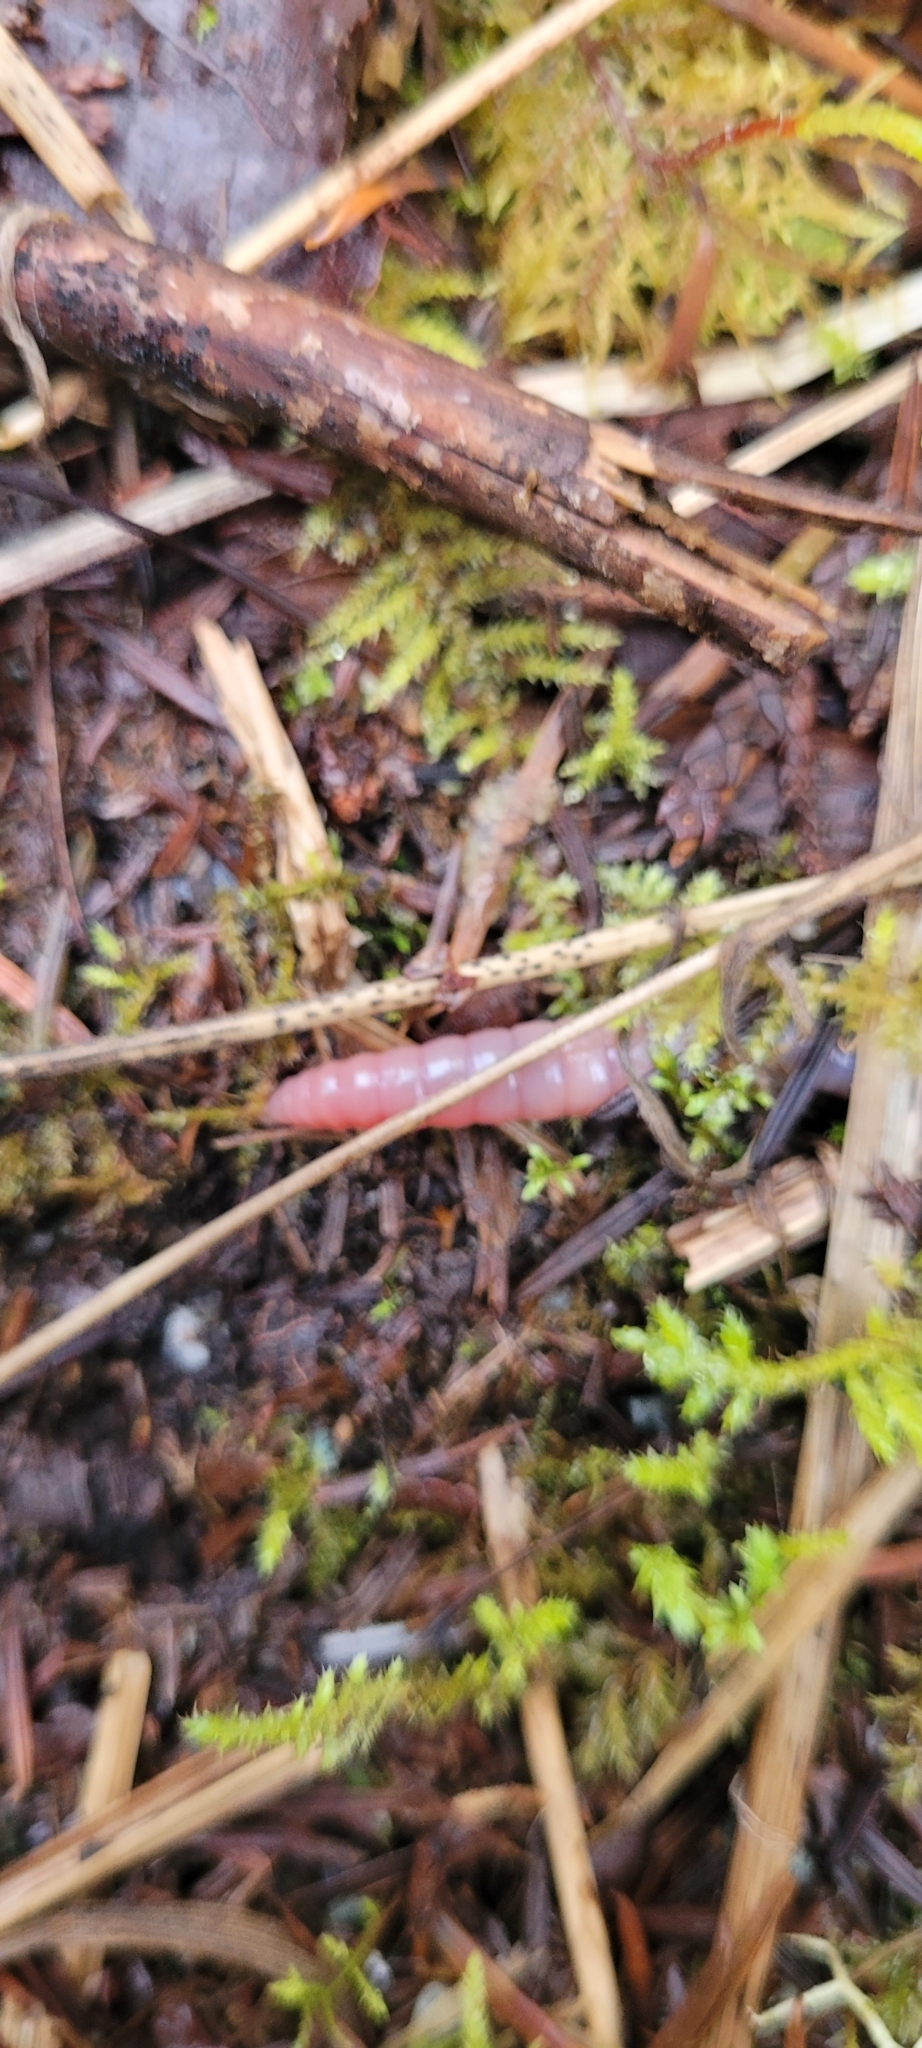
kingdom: Animalia
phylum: Annelida
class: Clitellata
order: Crassiclitellata
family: Lumbricidae
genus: Octolasion
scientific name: Octolasion cyaneum
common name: Woodland blue worm
